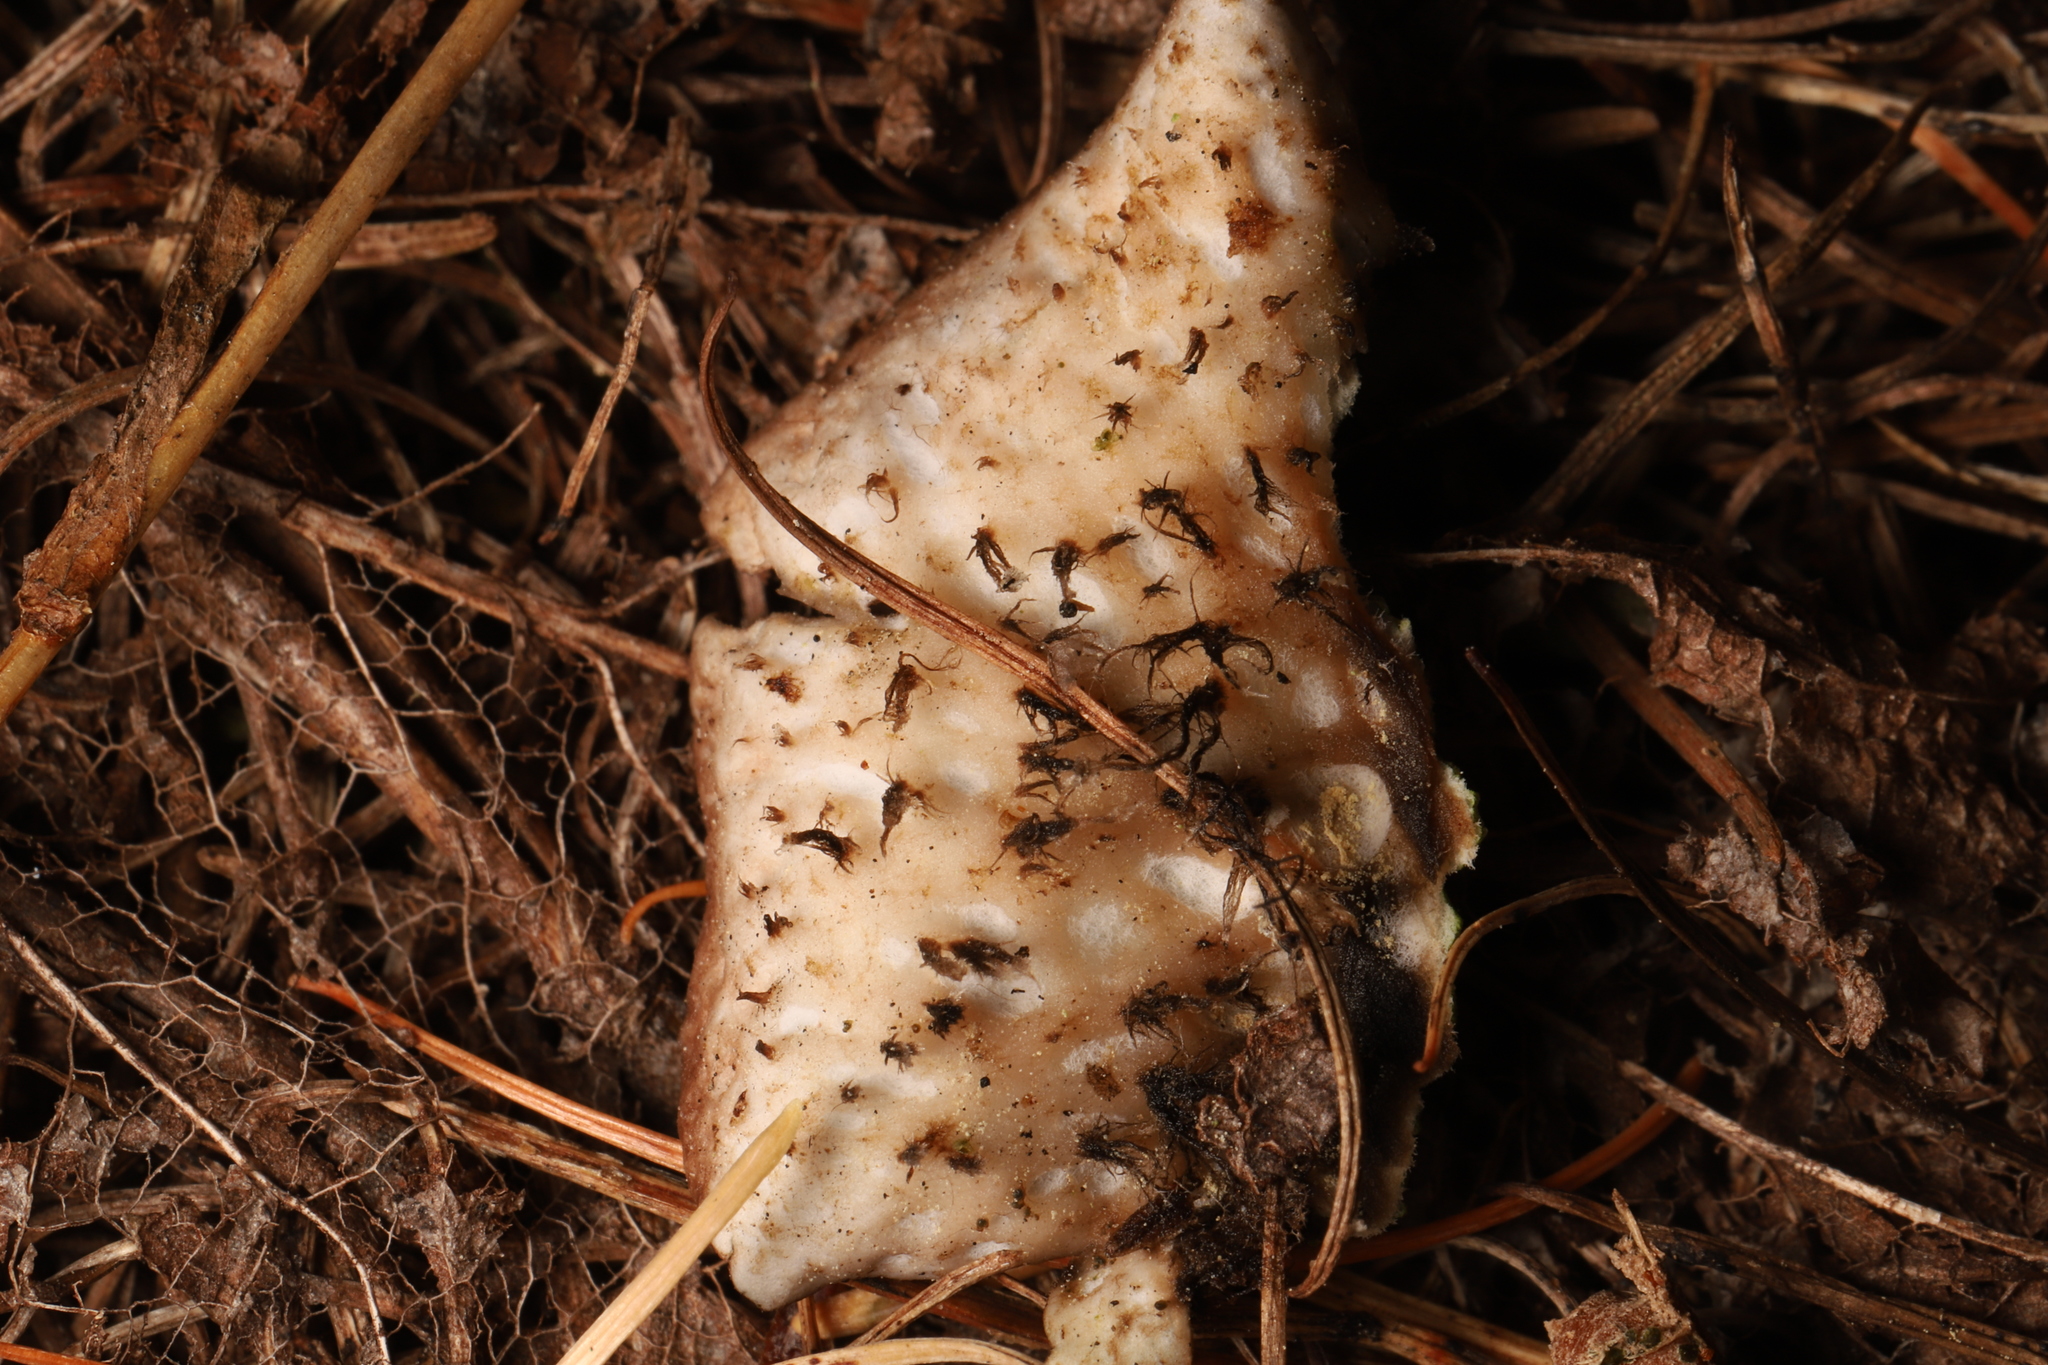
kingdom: Fungi
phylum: Ascomycota
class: Lecanoromycetes
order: Peltigerales
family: Peltigeraceae
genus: Peltigera
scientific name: Peltigera aphthosa
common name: Common freckle pelt lichen
